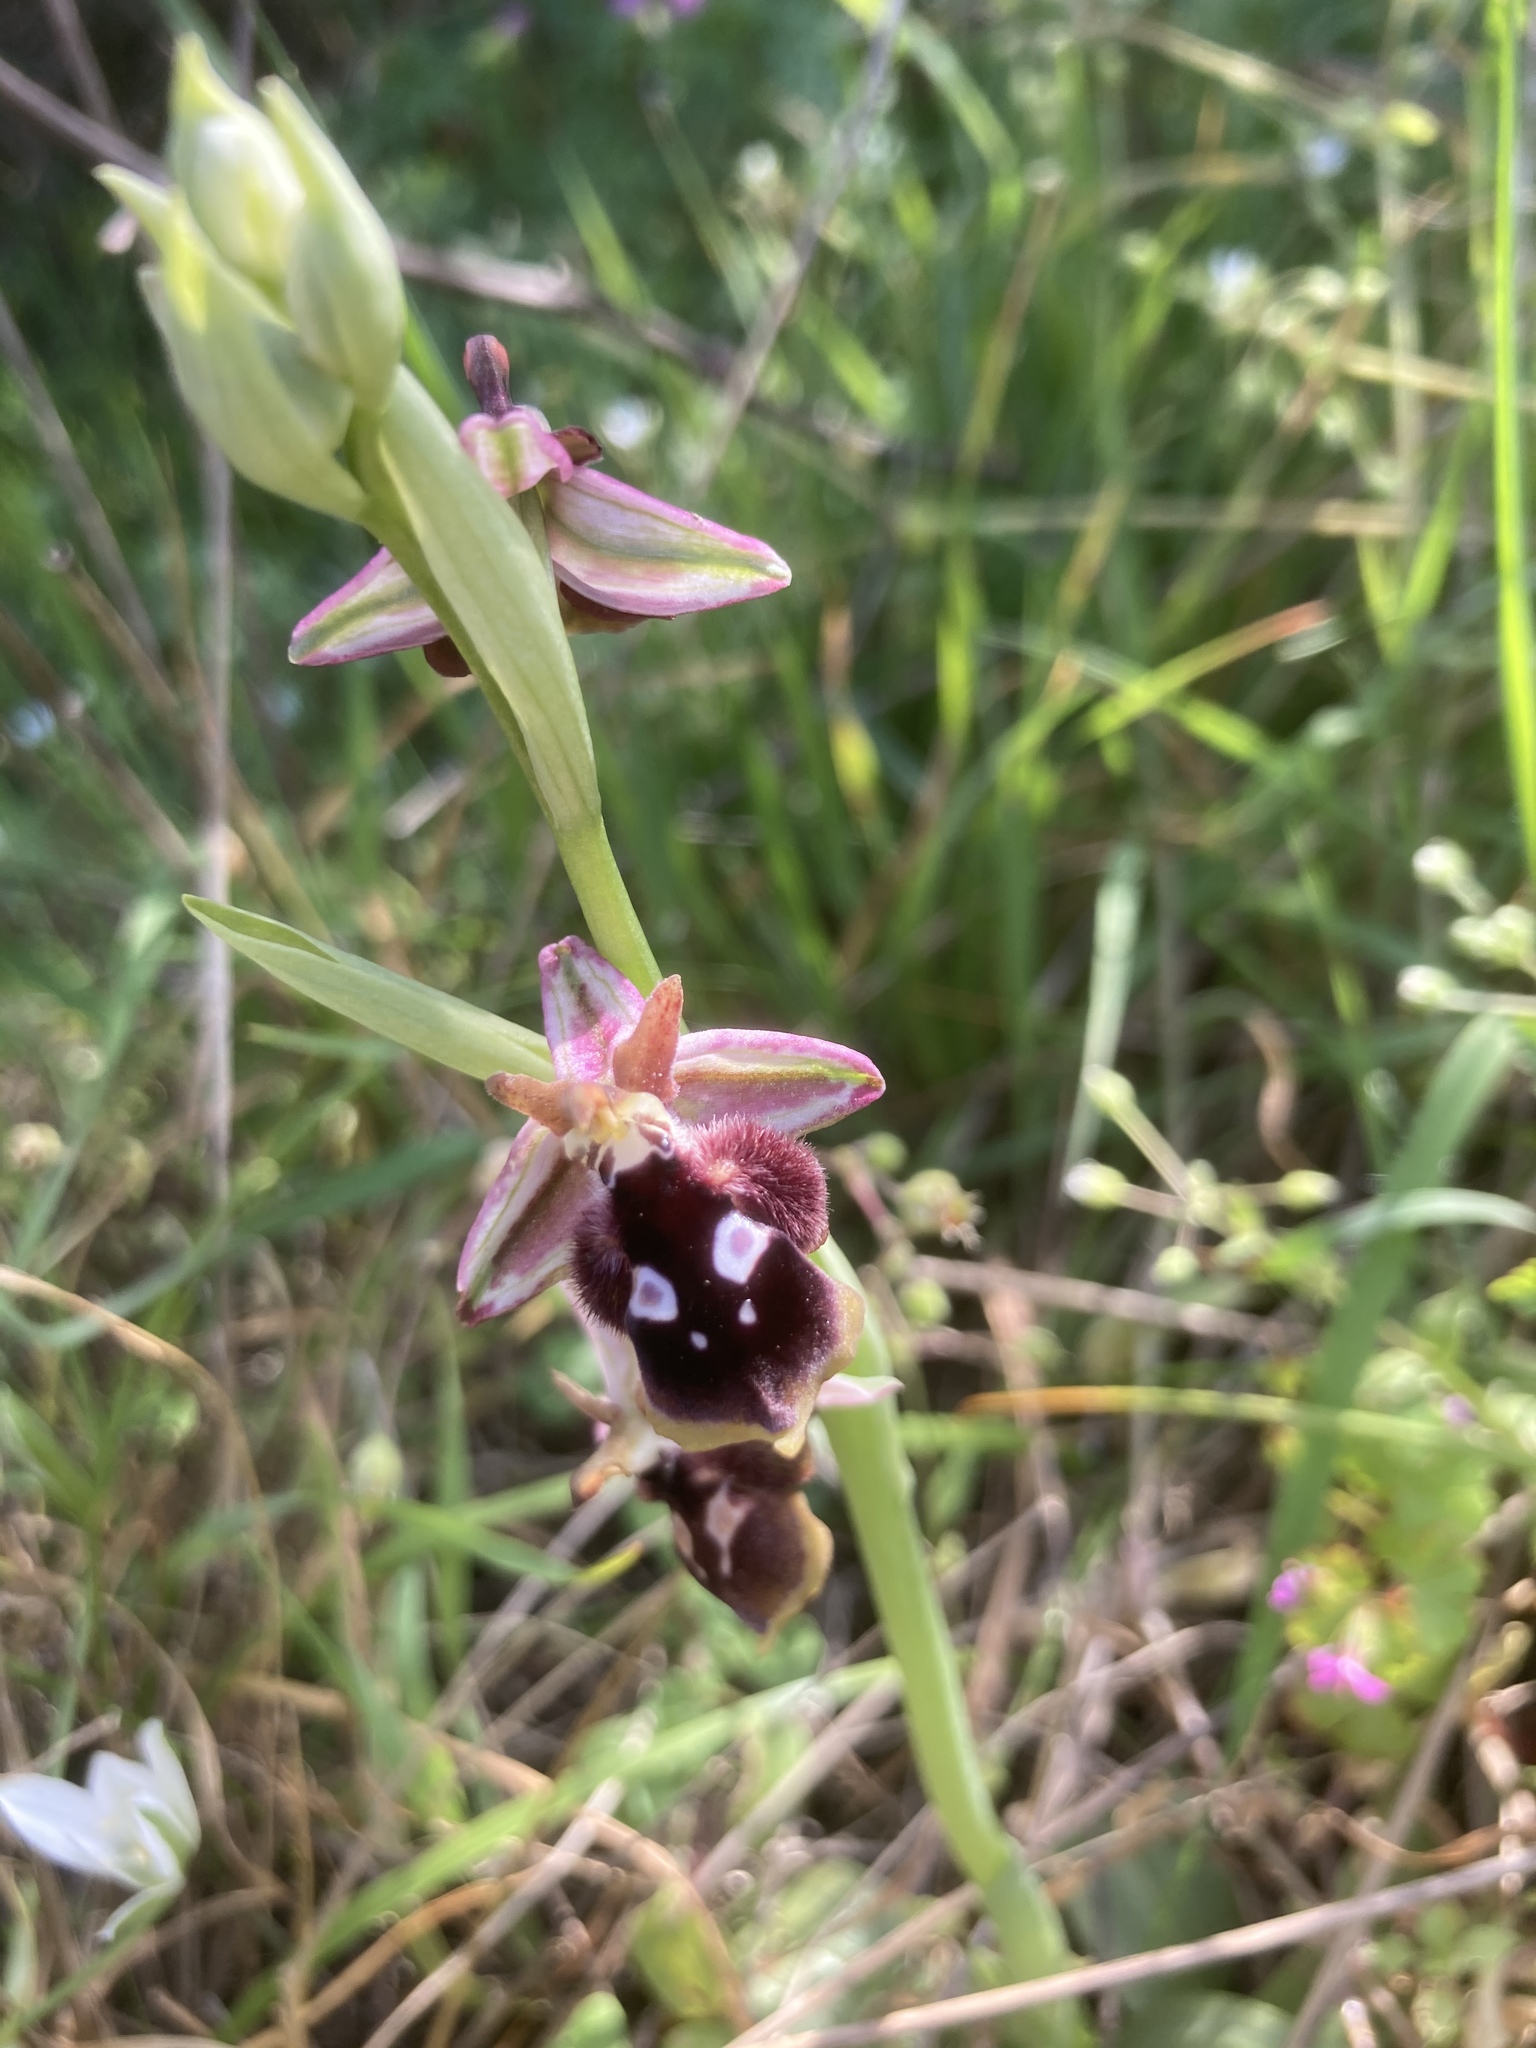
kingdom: Plantae
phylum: Tracheophyta
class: Liliopsida
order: Asparagales
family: Orchidaceae
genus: Ophrys
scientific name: Ophrys reinholdii
